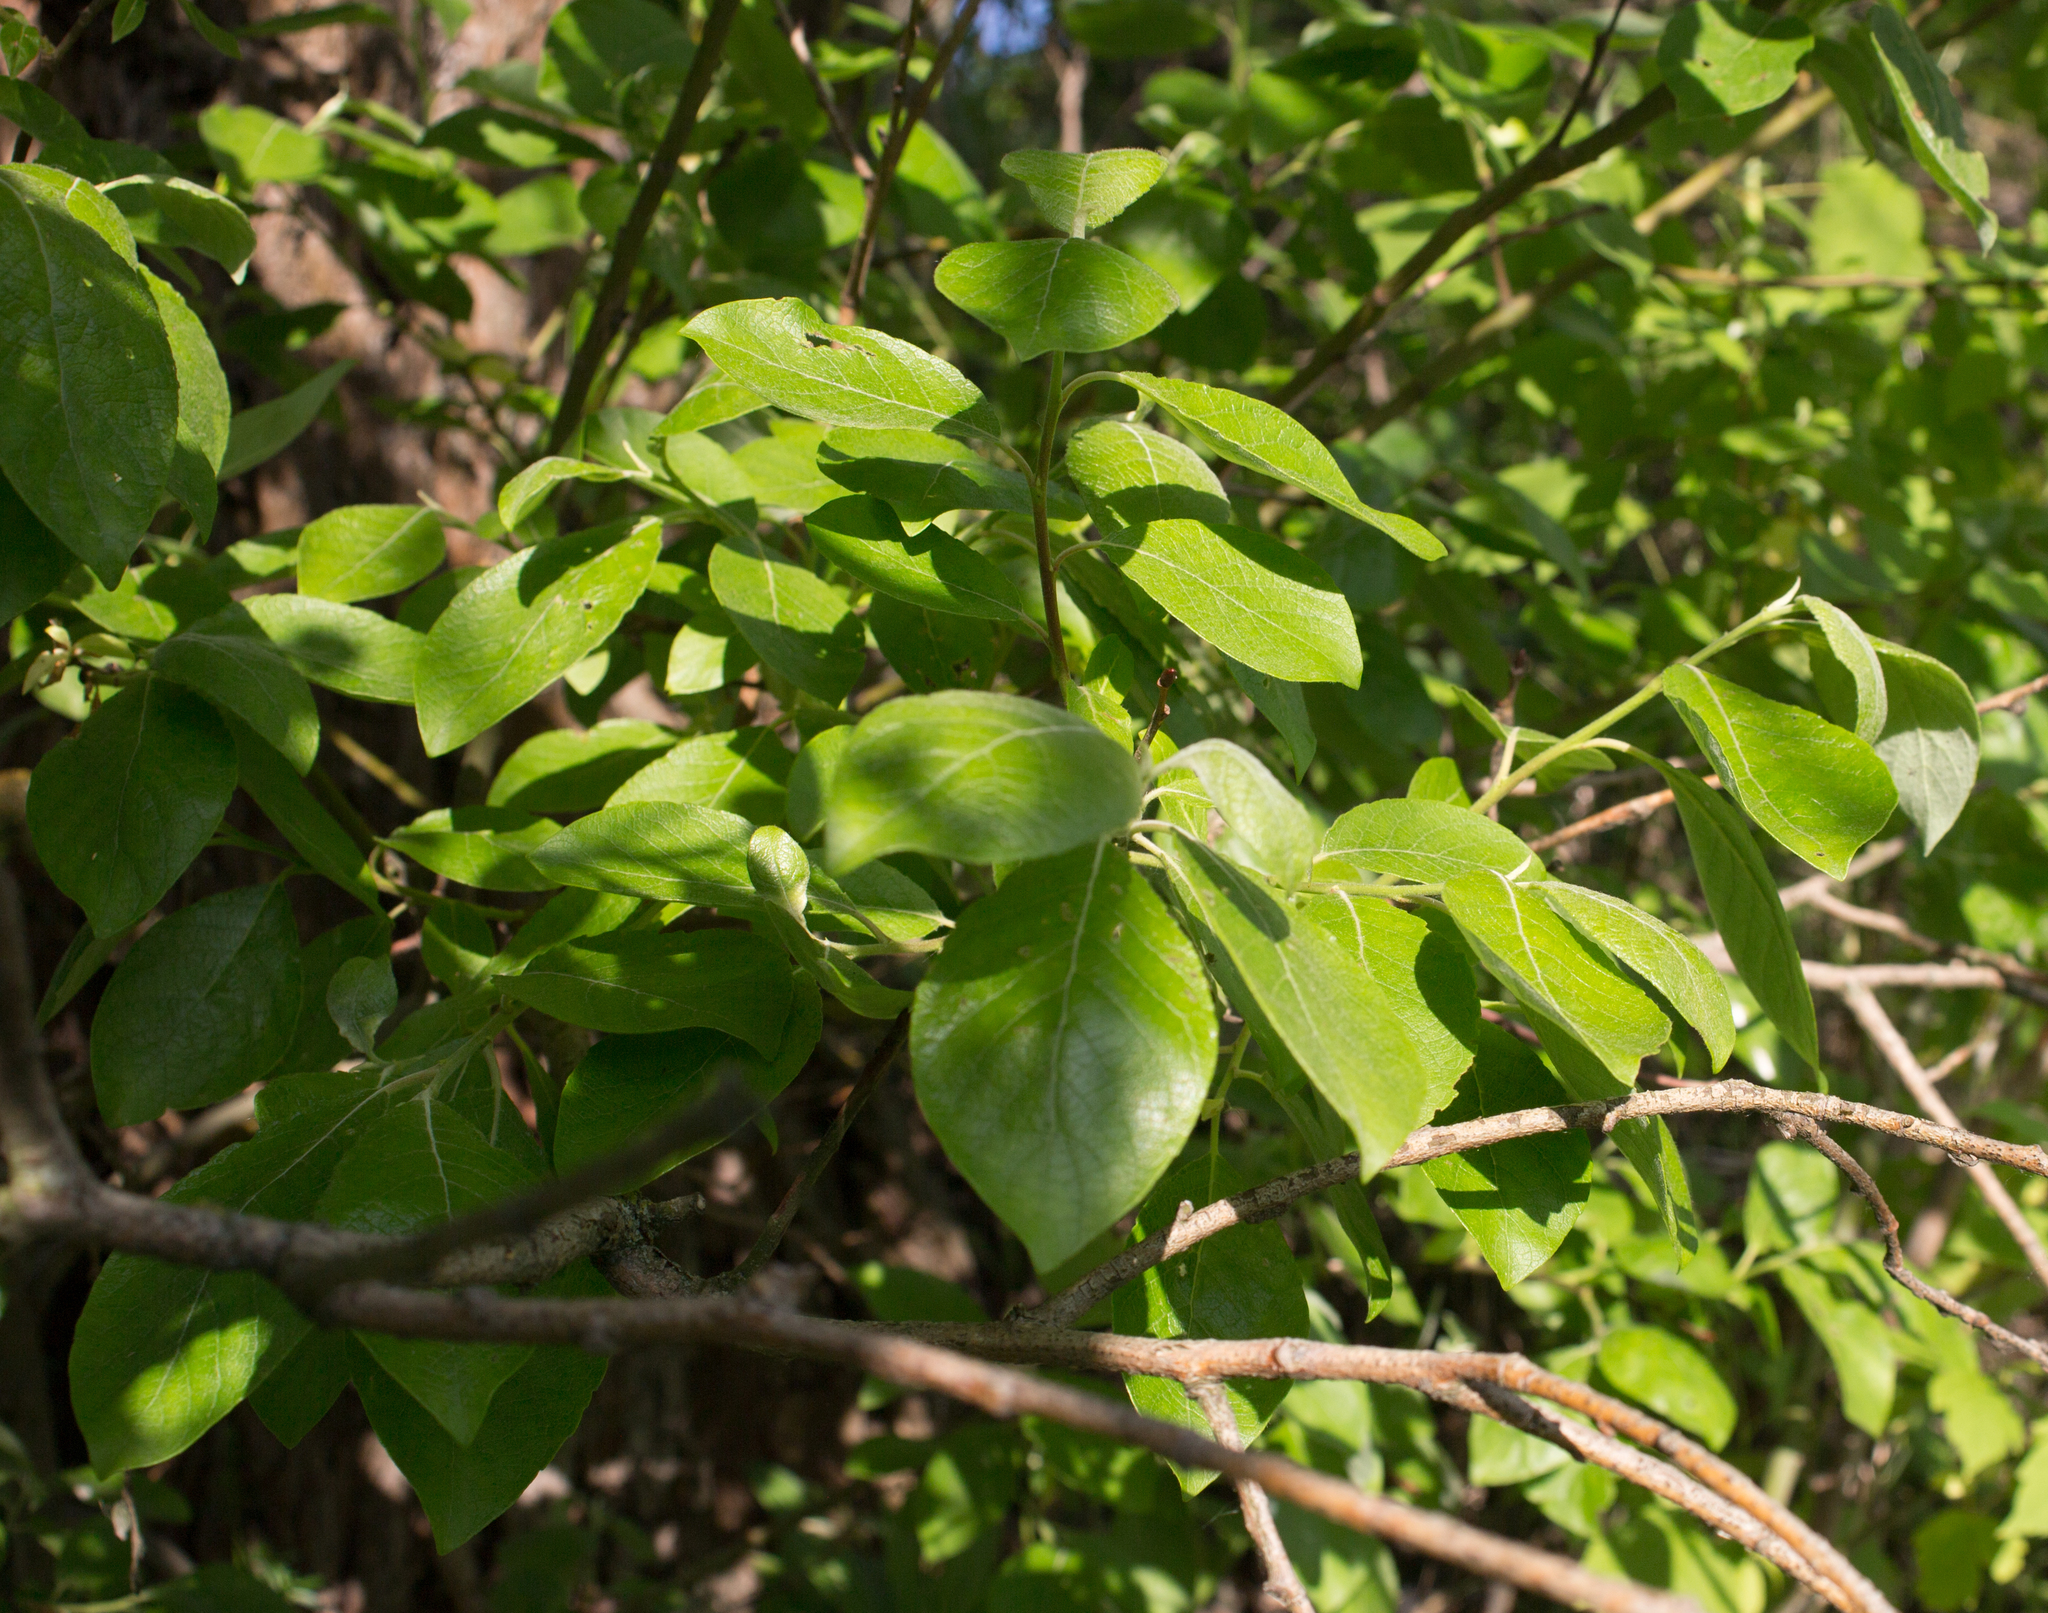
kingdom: Plantae
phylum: Tracheophyta
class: Magnoliopsida
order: Malpighiales
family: Salicaceae
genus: Salix
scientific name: Salix caprea
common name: Goat willow
